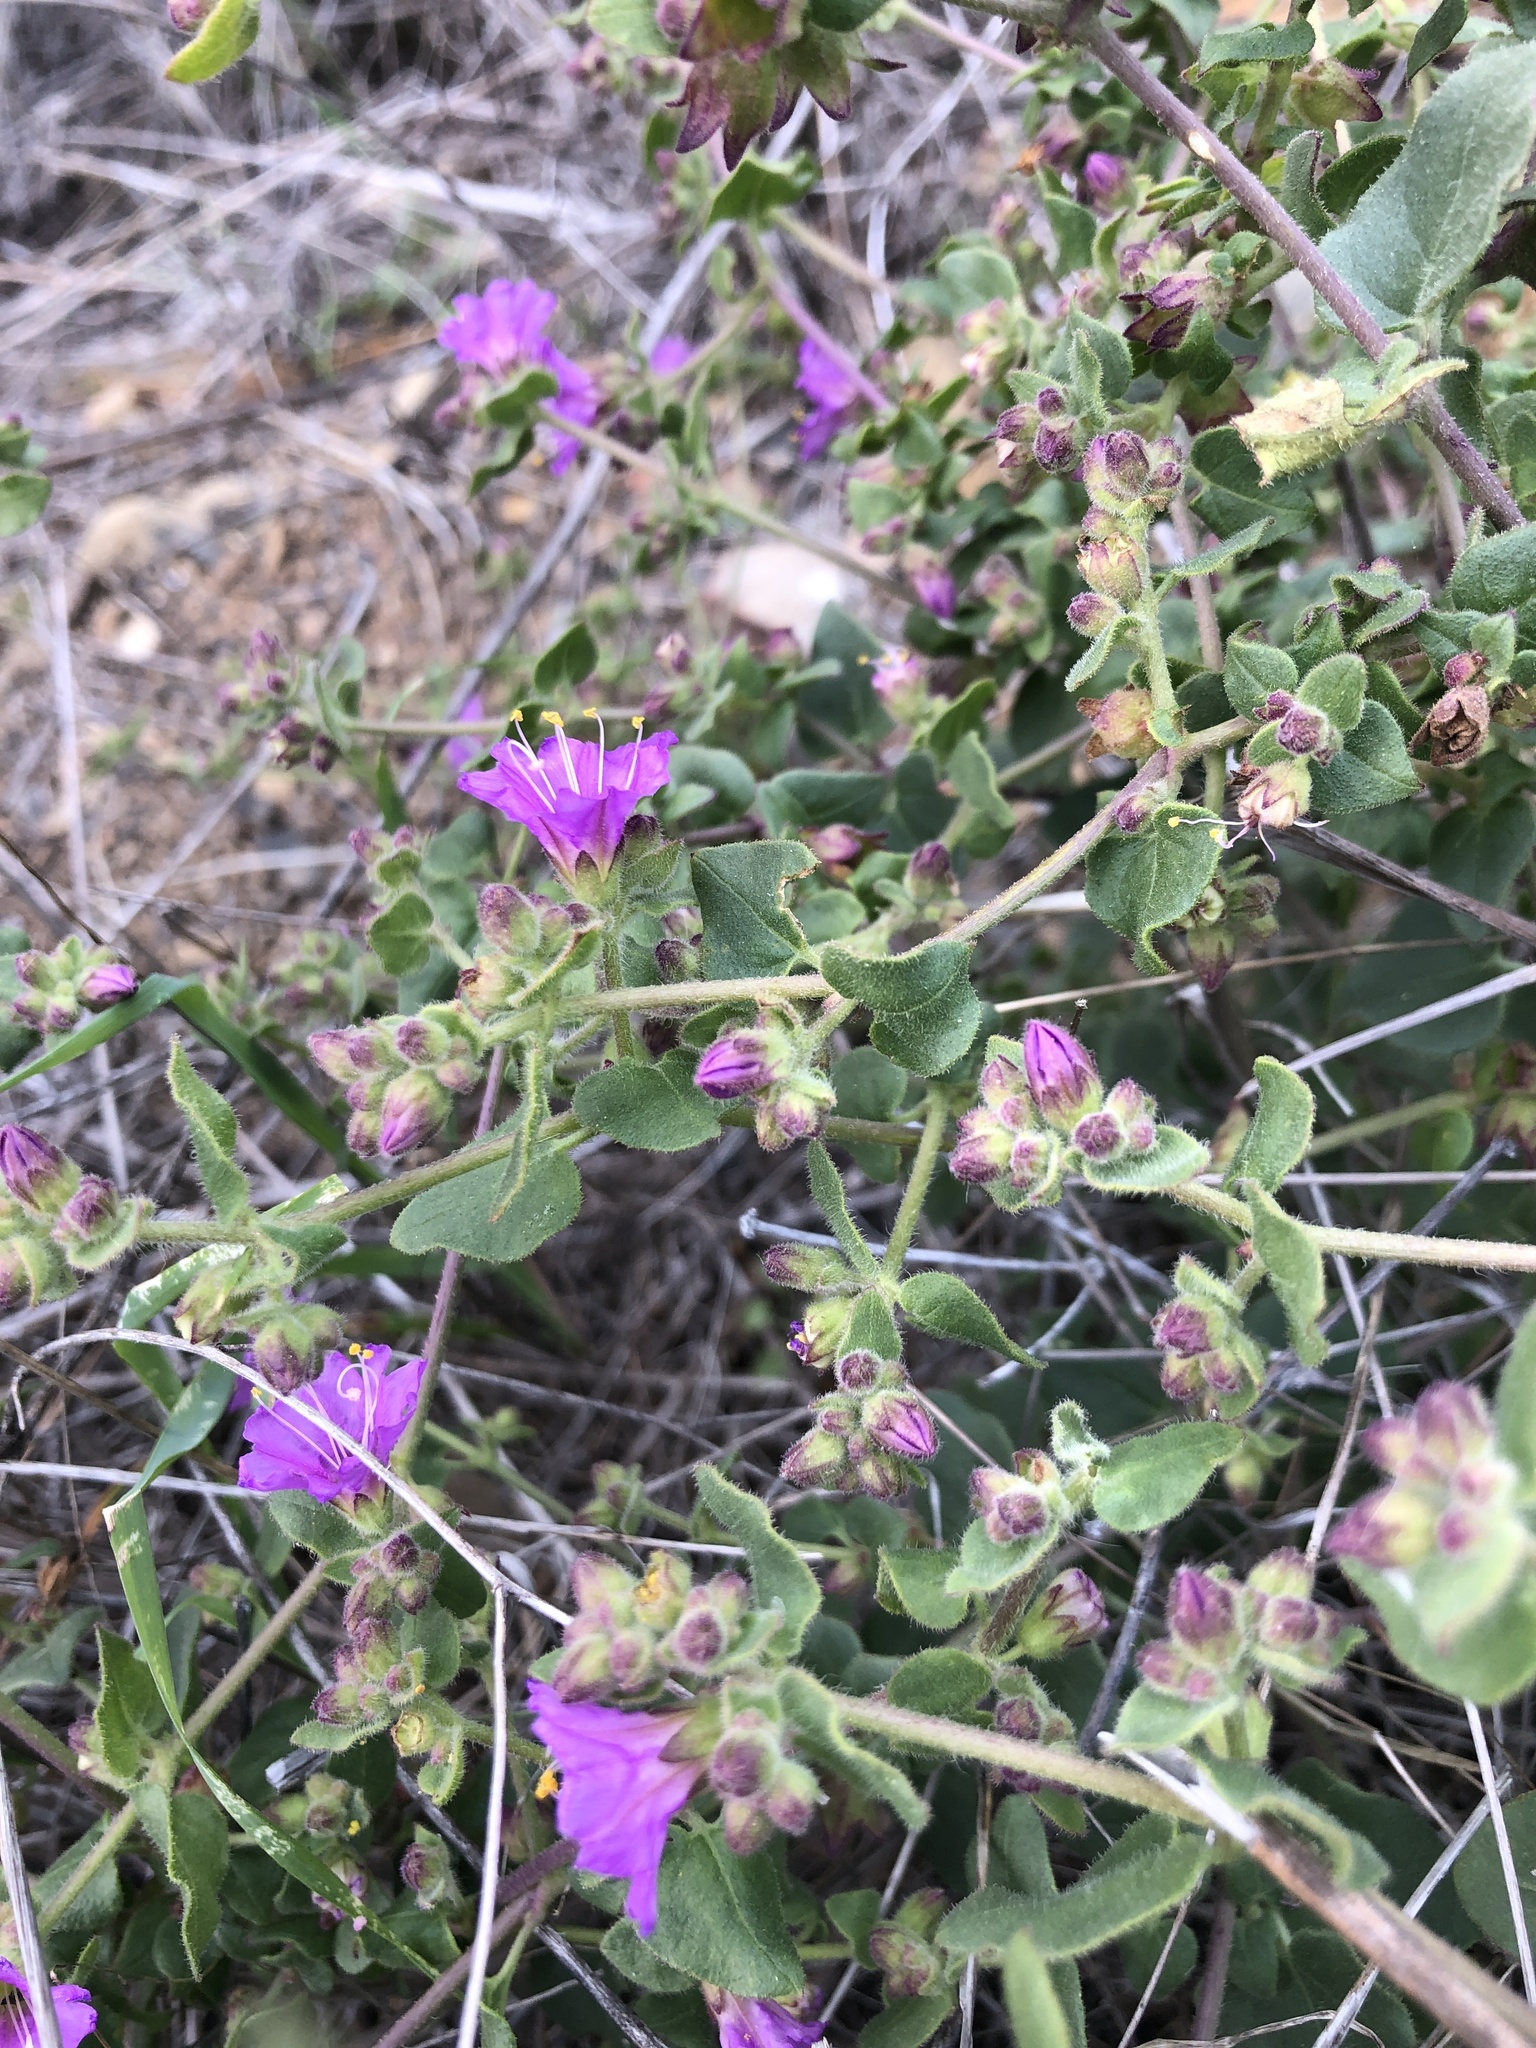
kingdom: Plantae
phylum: Tracheophyta
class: Magnoliopsida
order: Caryophyllales
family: Nyctaginaceae
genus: Mirabilis
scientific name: Mirabilis laevis
